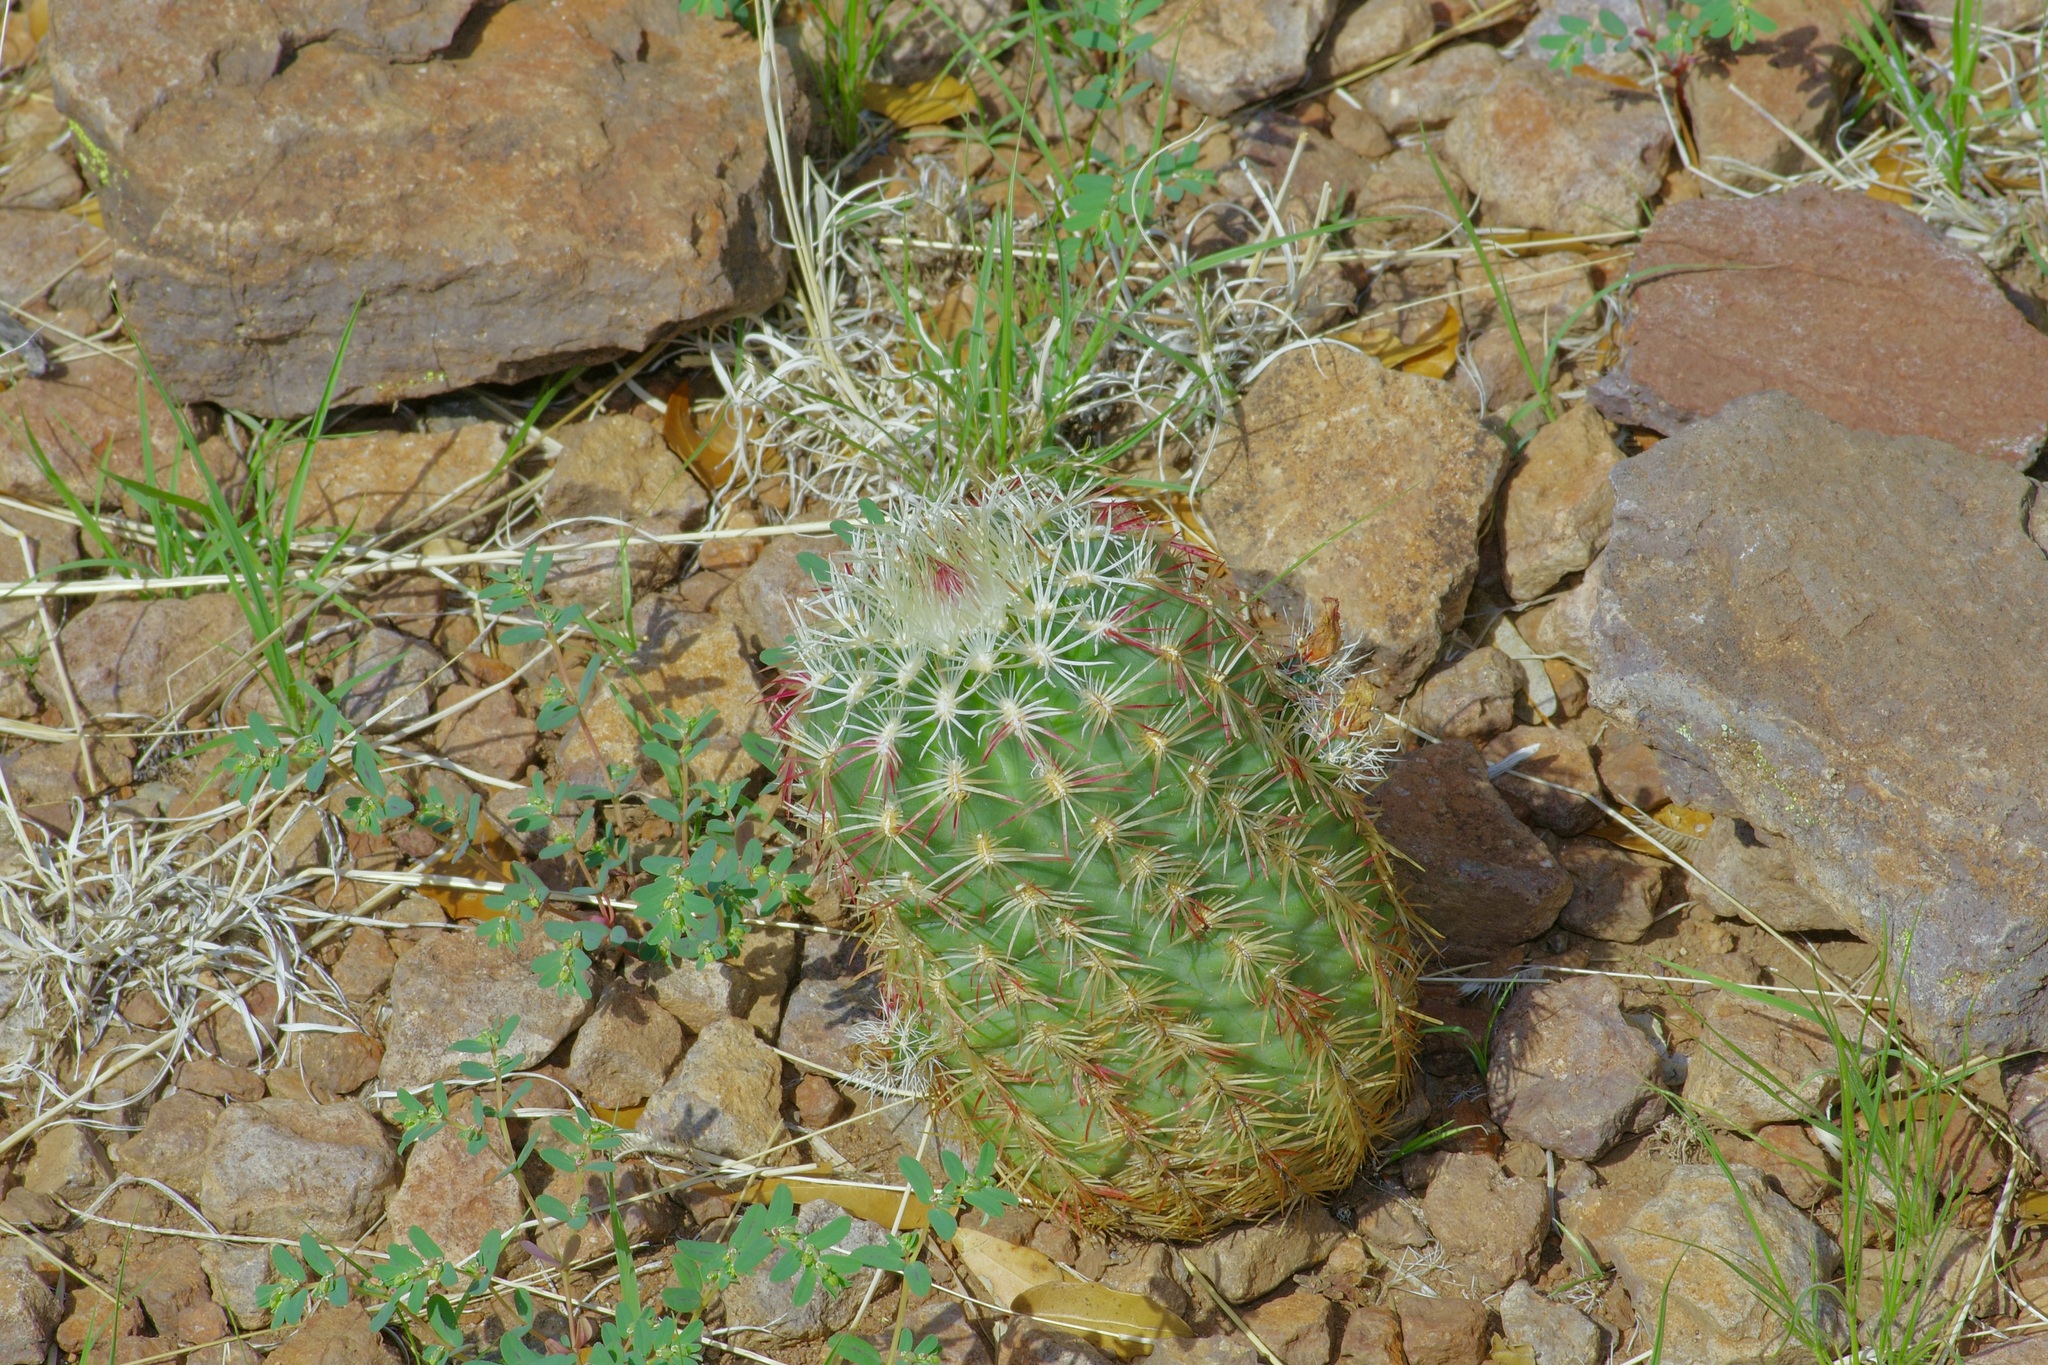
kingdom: Plantae
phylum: Tracheophyta
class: Magnoliopsida
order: Caryophyllales
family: Cactaceae
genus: Echinocereus
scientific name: Echinocereus viridiflorus
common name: Nylon hedgehog cactus
